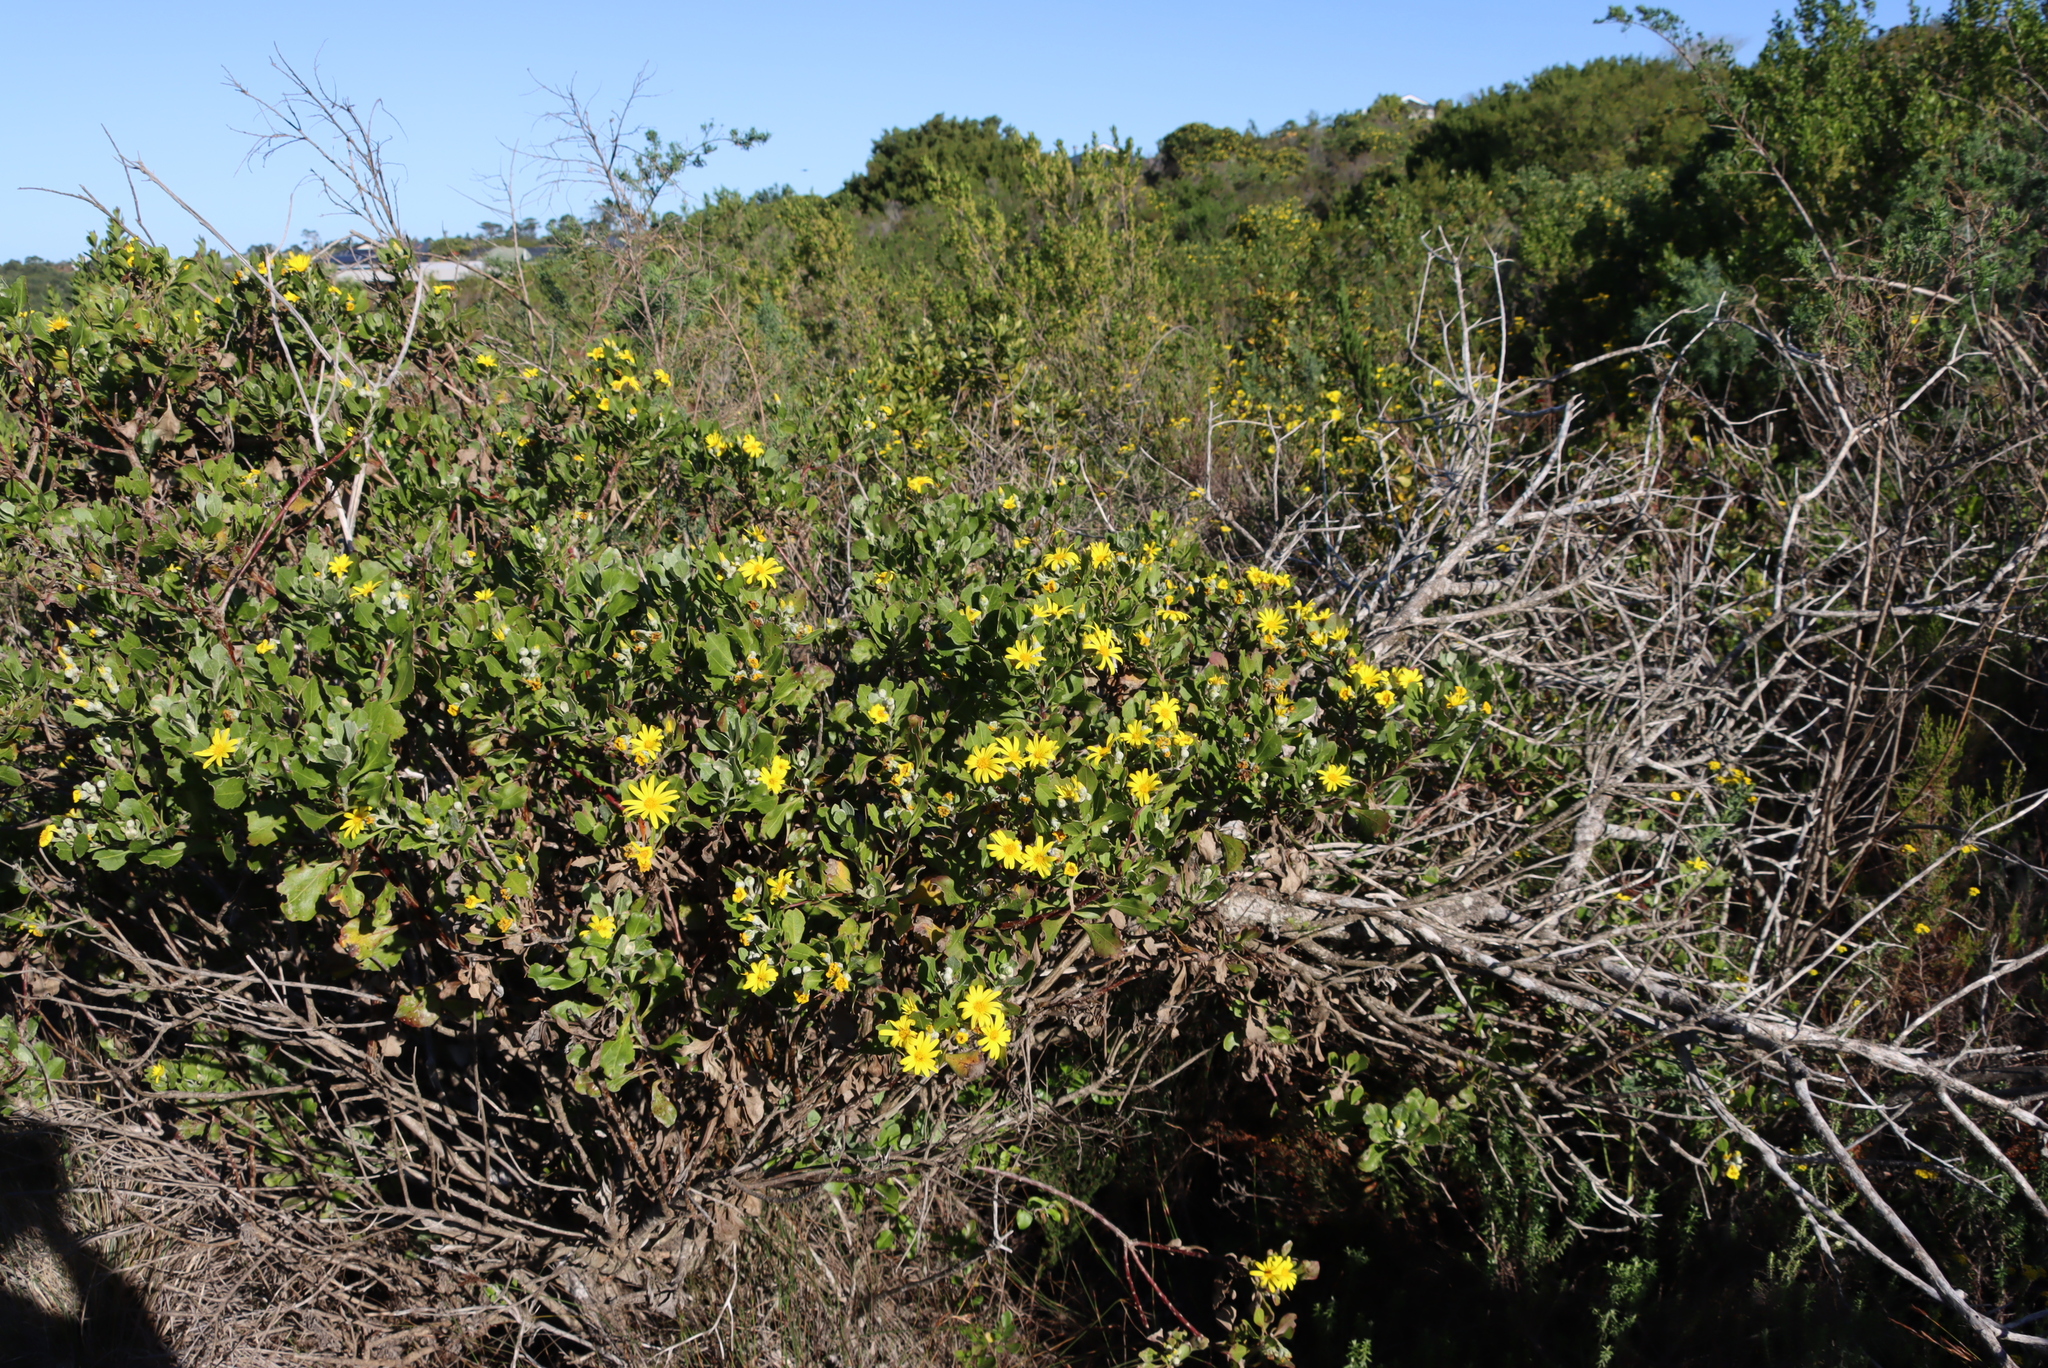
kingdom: Plantae
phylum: Tracheophyta
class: Magnoliopsida
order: Asterales
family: Asteraceae
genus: Osteospermum
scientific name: Osteospermum moniliferum
